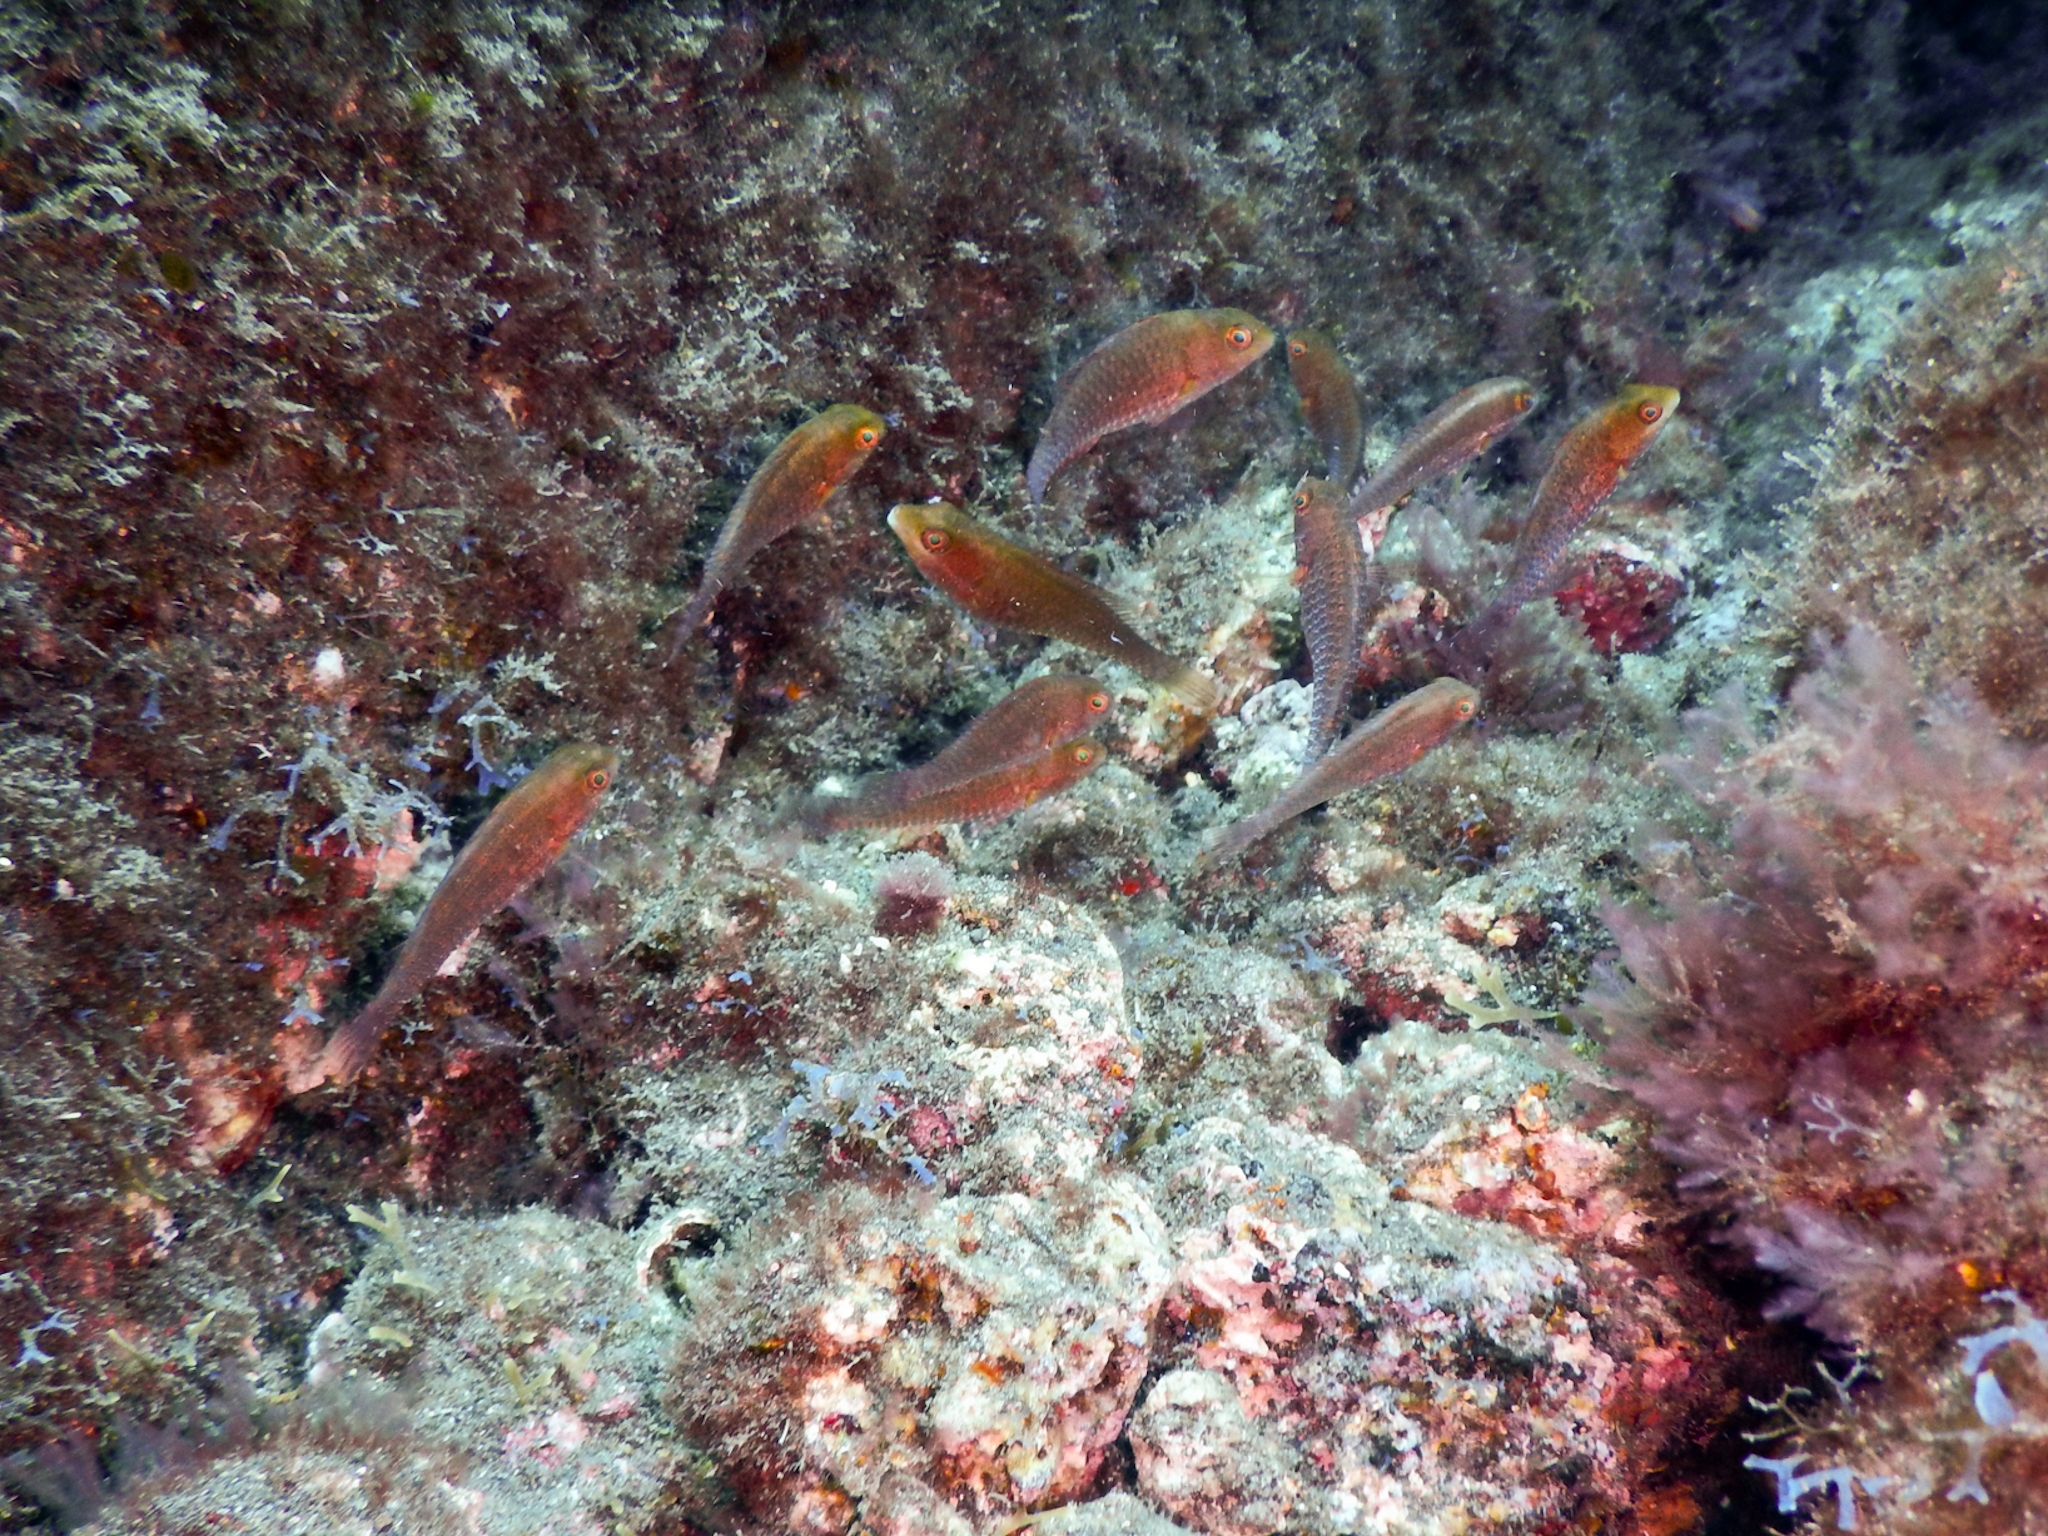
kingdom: Animalia
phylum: Chordata
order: Perciformes
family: Scaridae
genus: Sparisoma
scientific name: Sparisoma cretense
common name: Parrotfish
